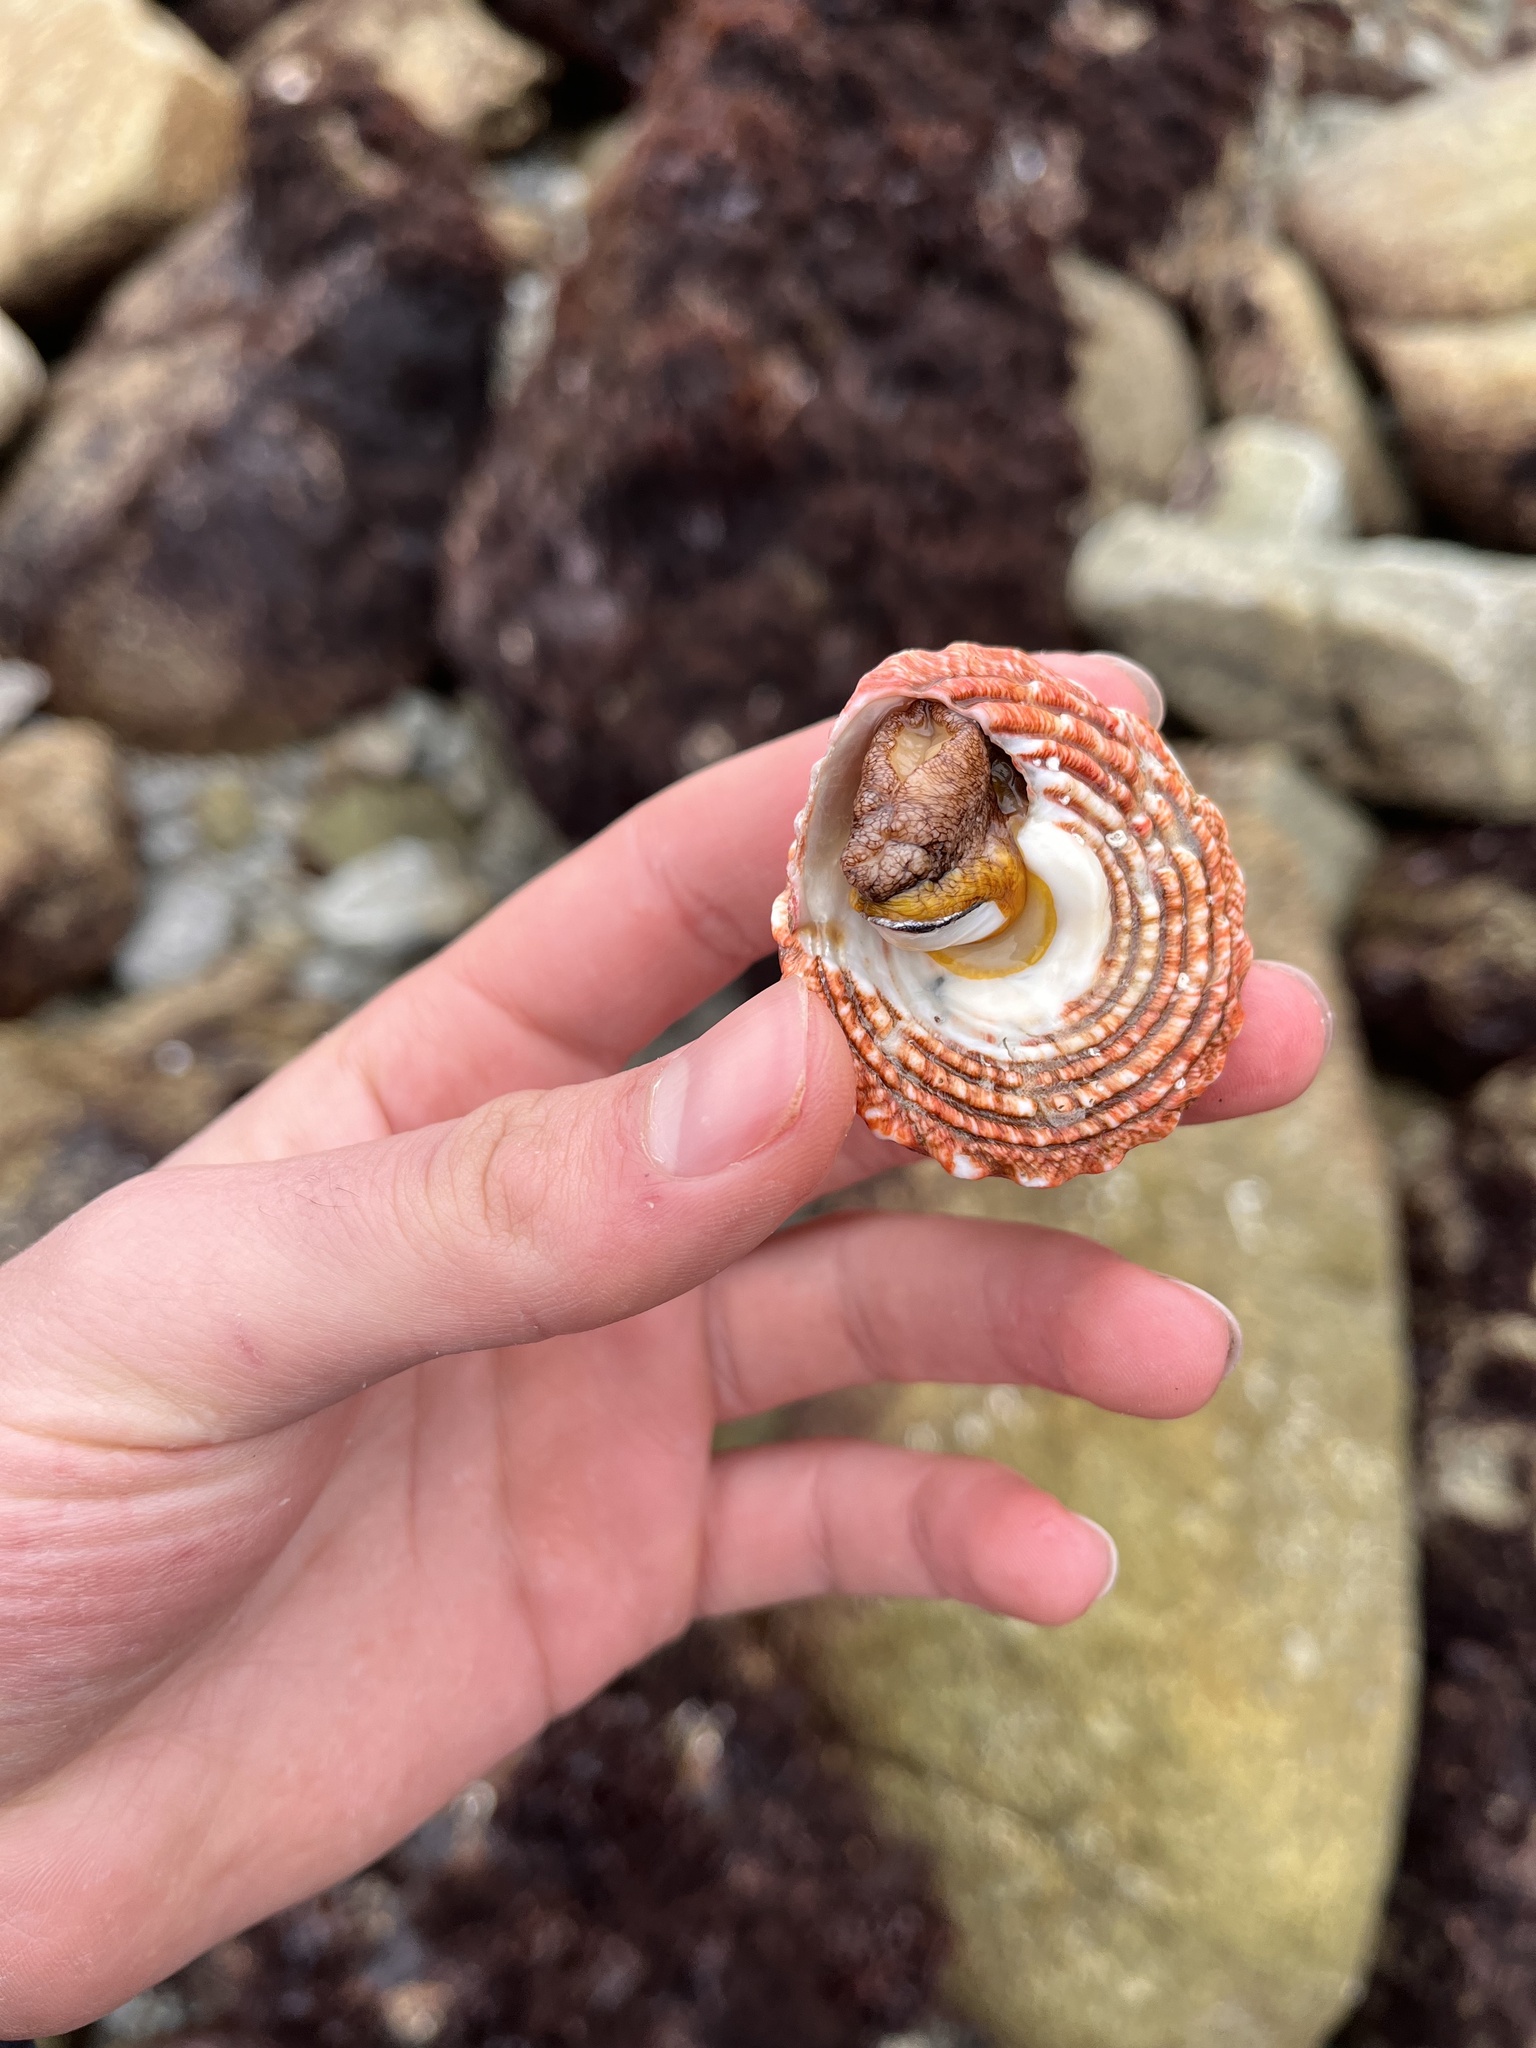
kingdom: Animalia
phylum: Mollusca
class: Gastropoda
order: Trochida
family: Turbinidae
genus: Pomaulax
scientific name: Pomaulax gibberosus
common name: Red turban
